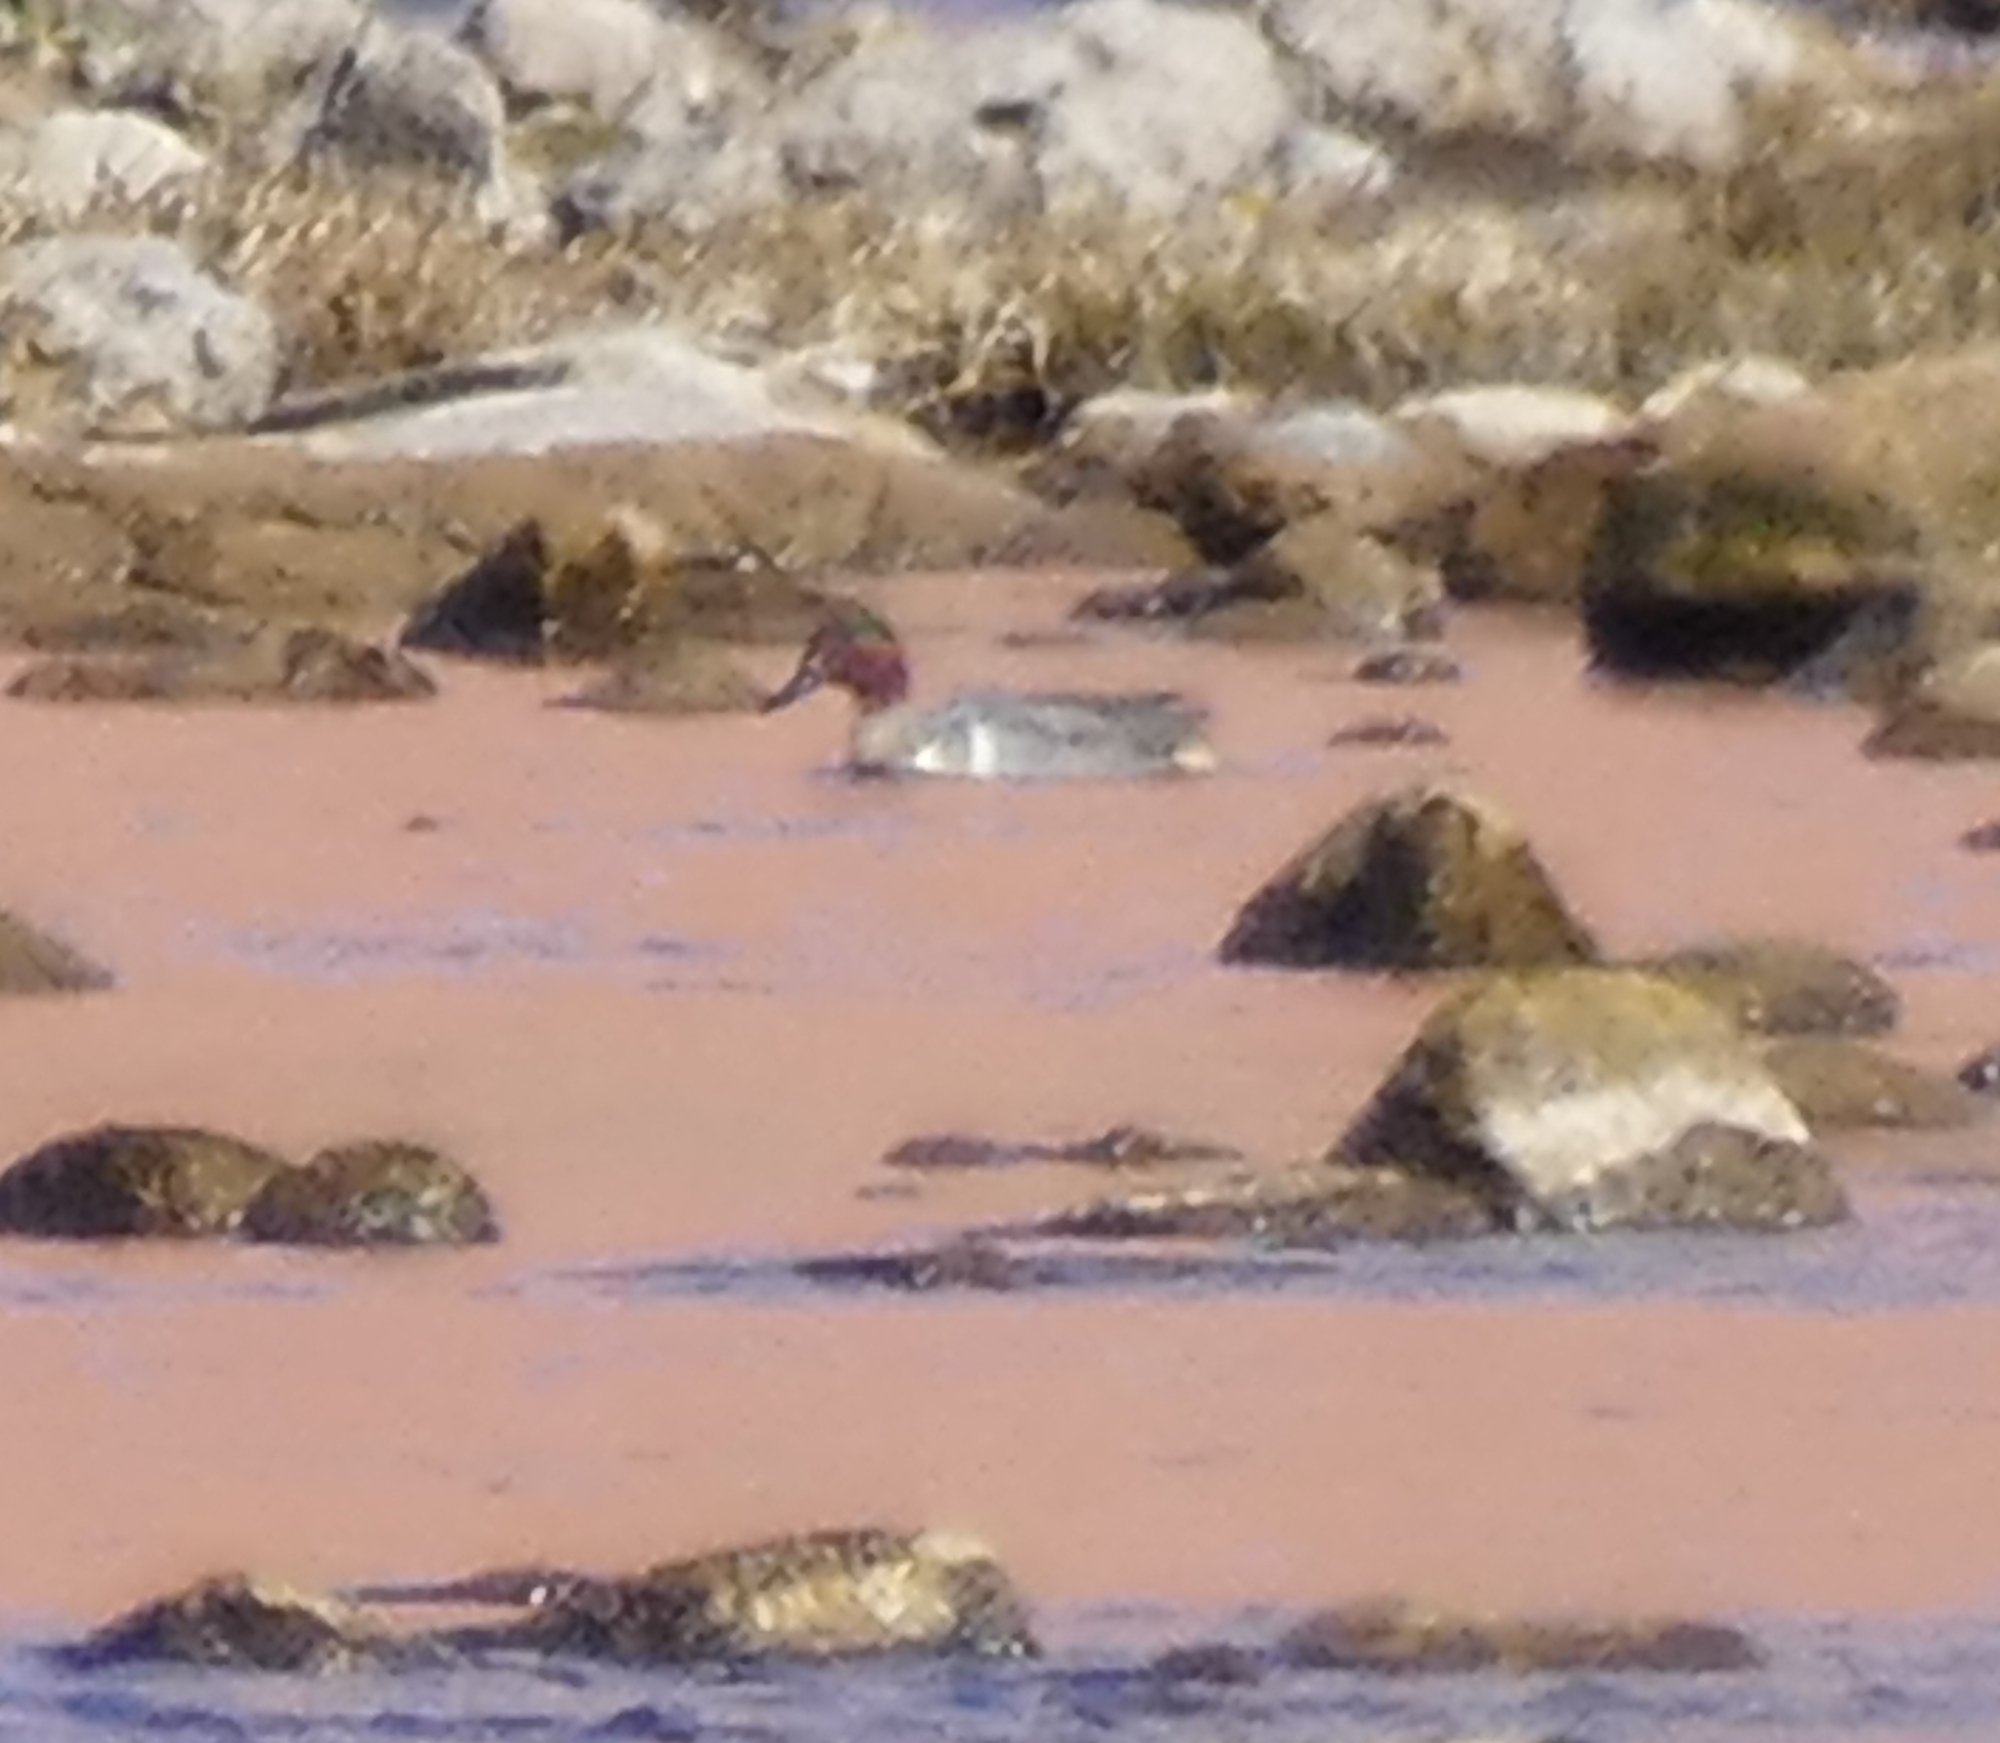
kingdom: Animalia
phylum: Chordata
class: Aves
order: Anseriformes
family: Anatidae
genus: Anas
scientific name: Anas crecca
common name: Eurasian teal
